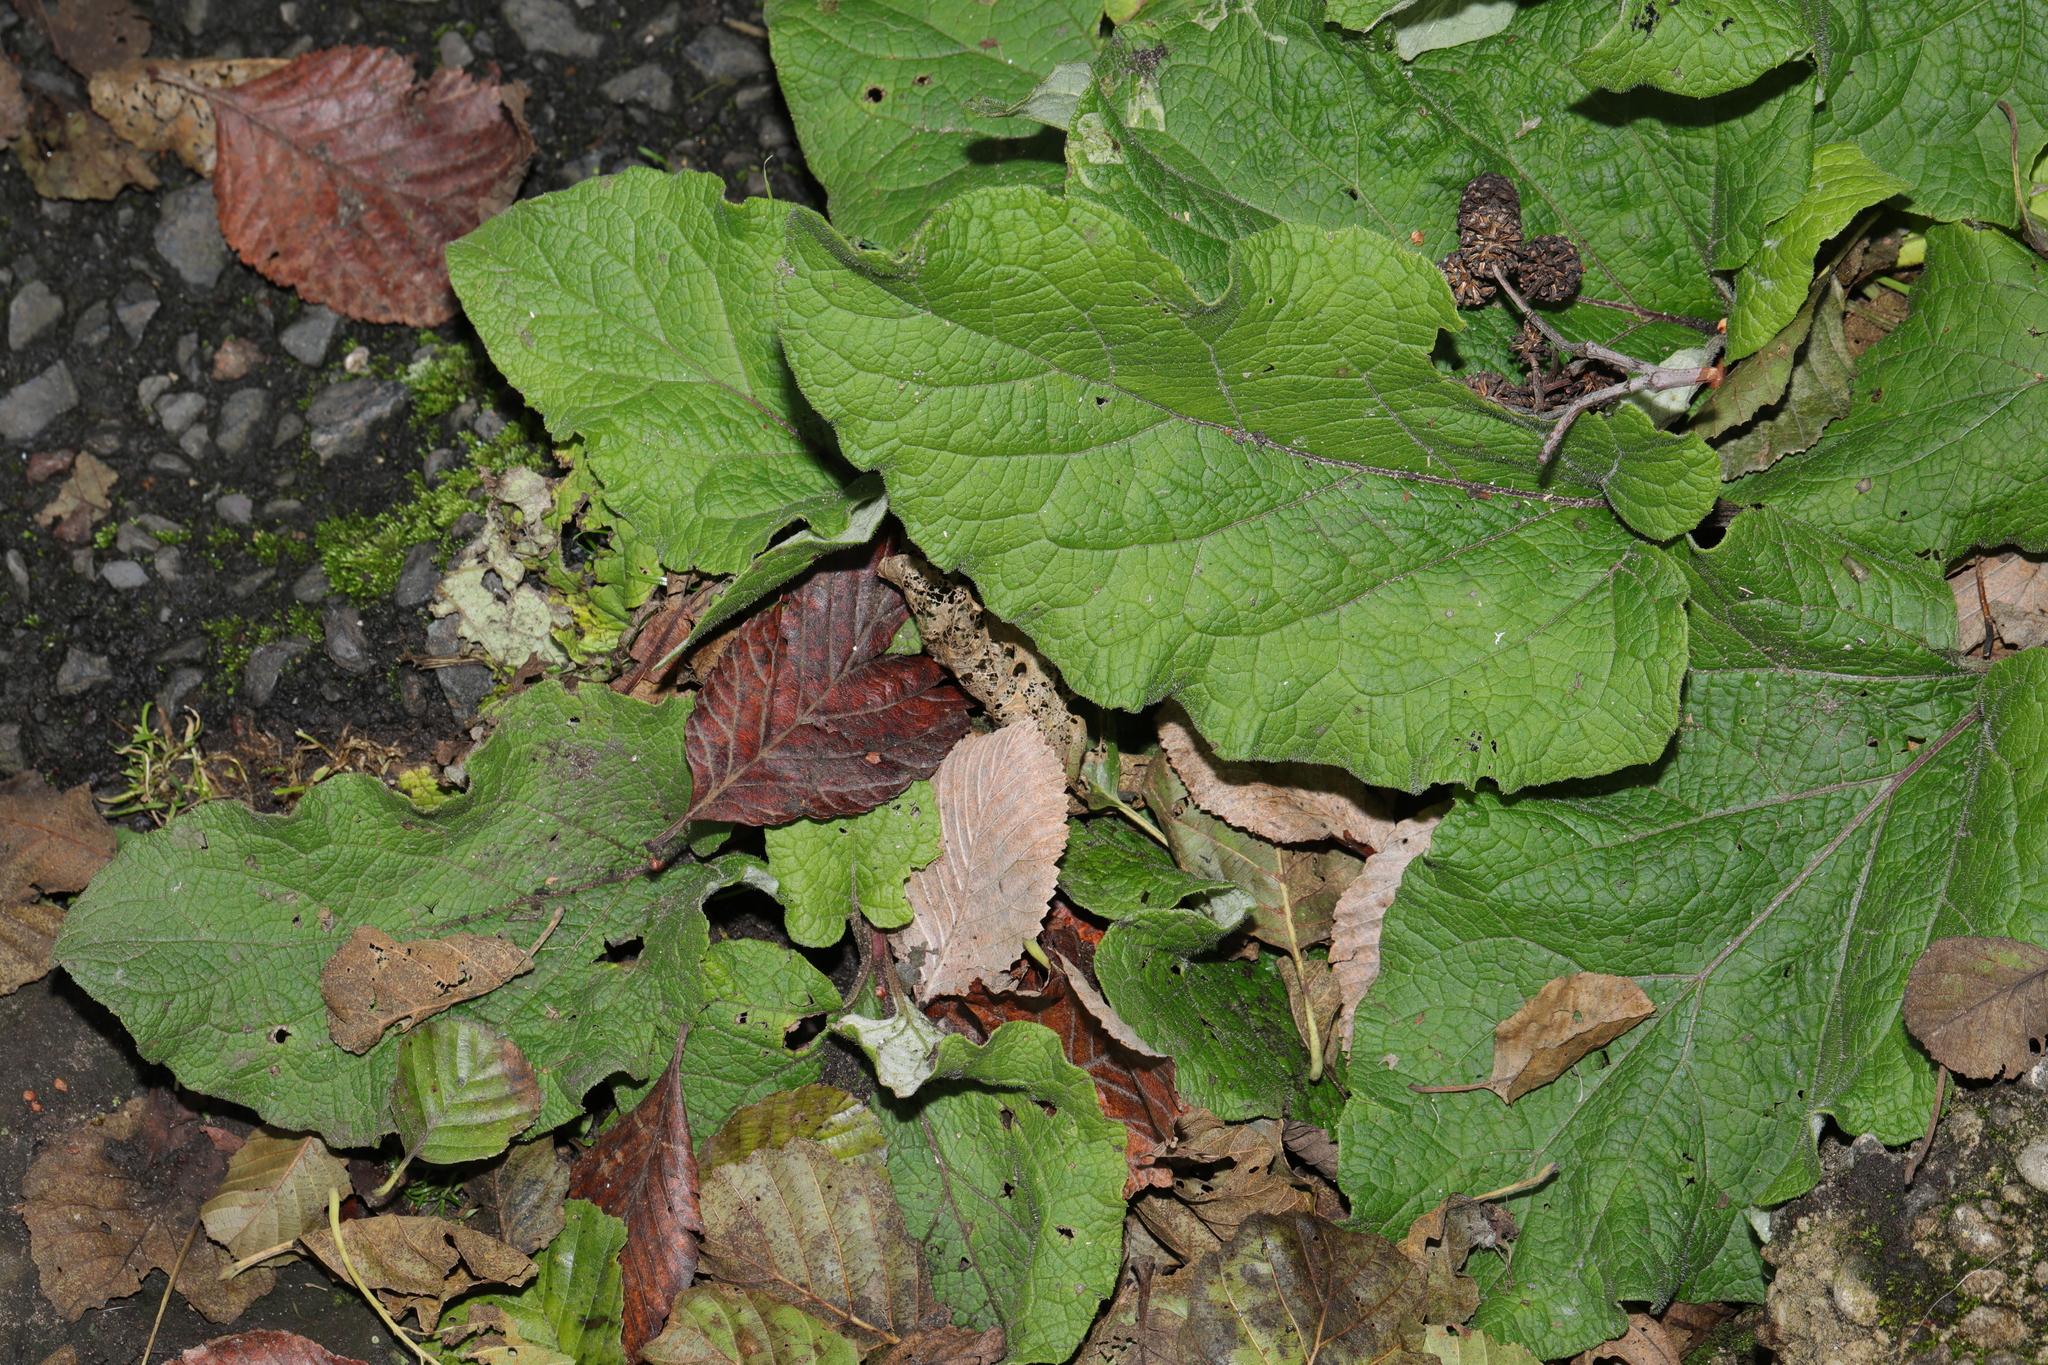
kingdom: Plantae
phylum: Tracheophyta
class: Magnoliopsida
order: Asterales
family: Asteraceae
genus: Arctium
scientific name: Arctium minus
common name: Lesser burdock
